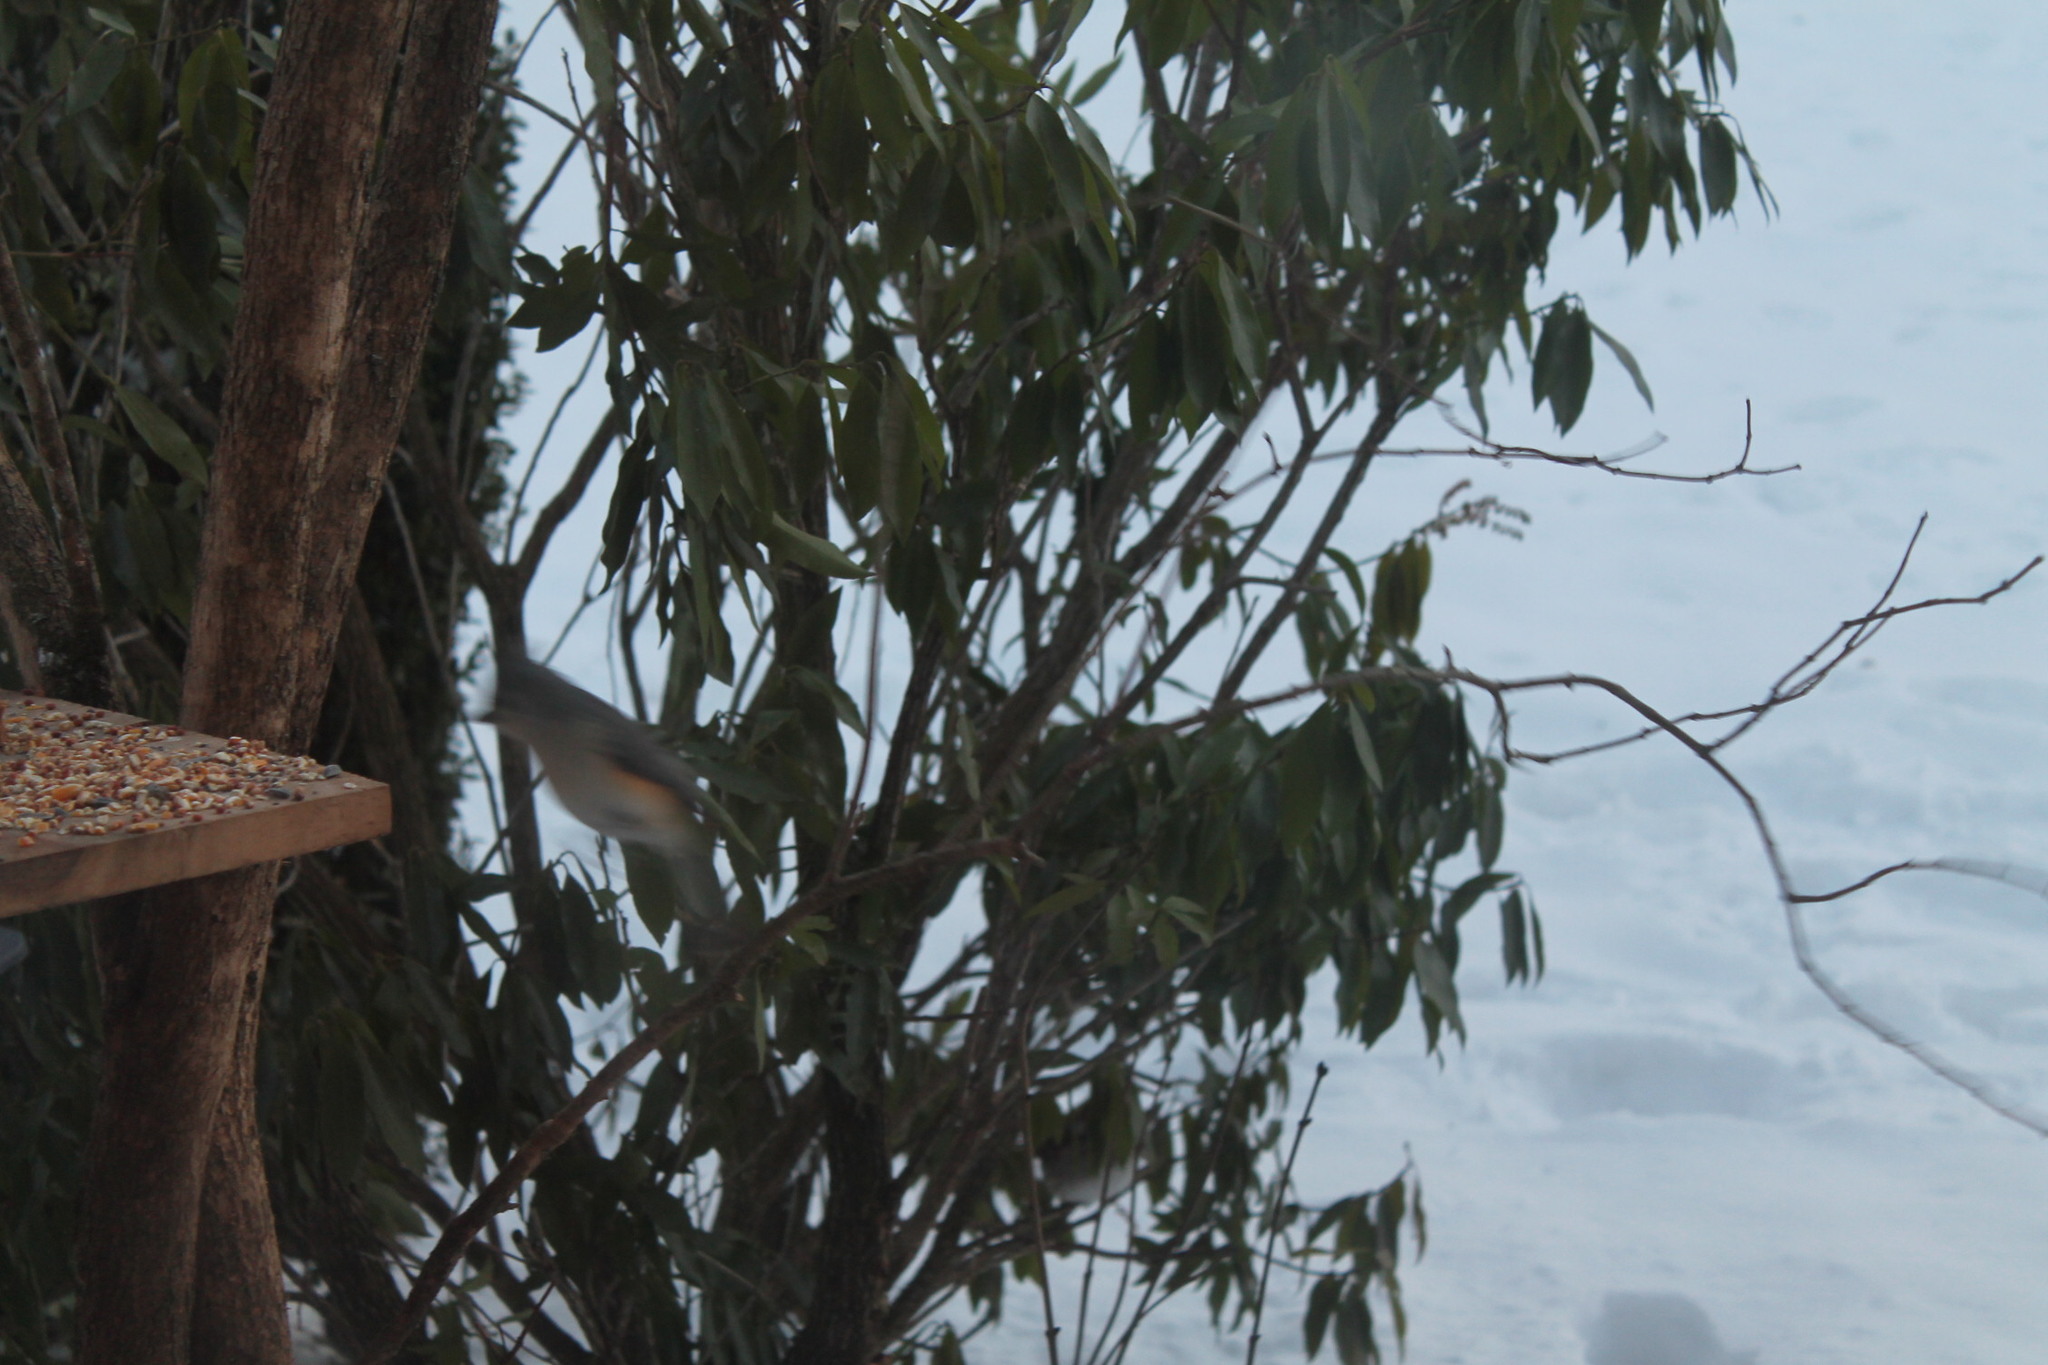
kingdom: Animalia
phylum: Chordata
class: Aves
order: Passeriformes
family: Paridae
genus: Baeolophus
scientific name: Baeolophus bicolor
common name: Tufted titmouse
